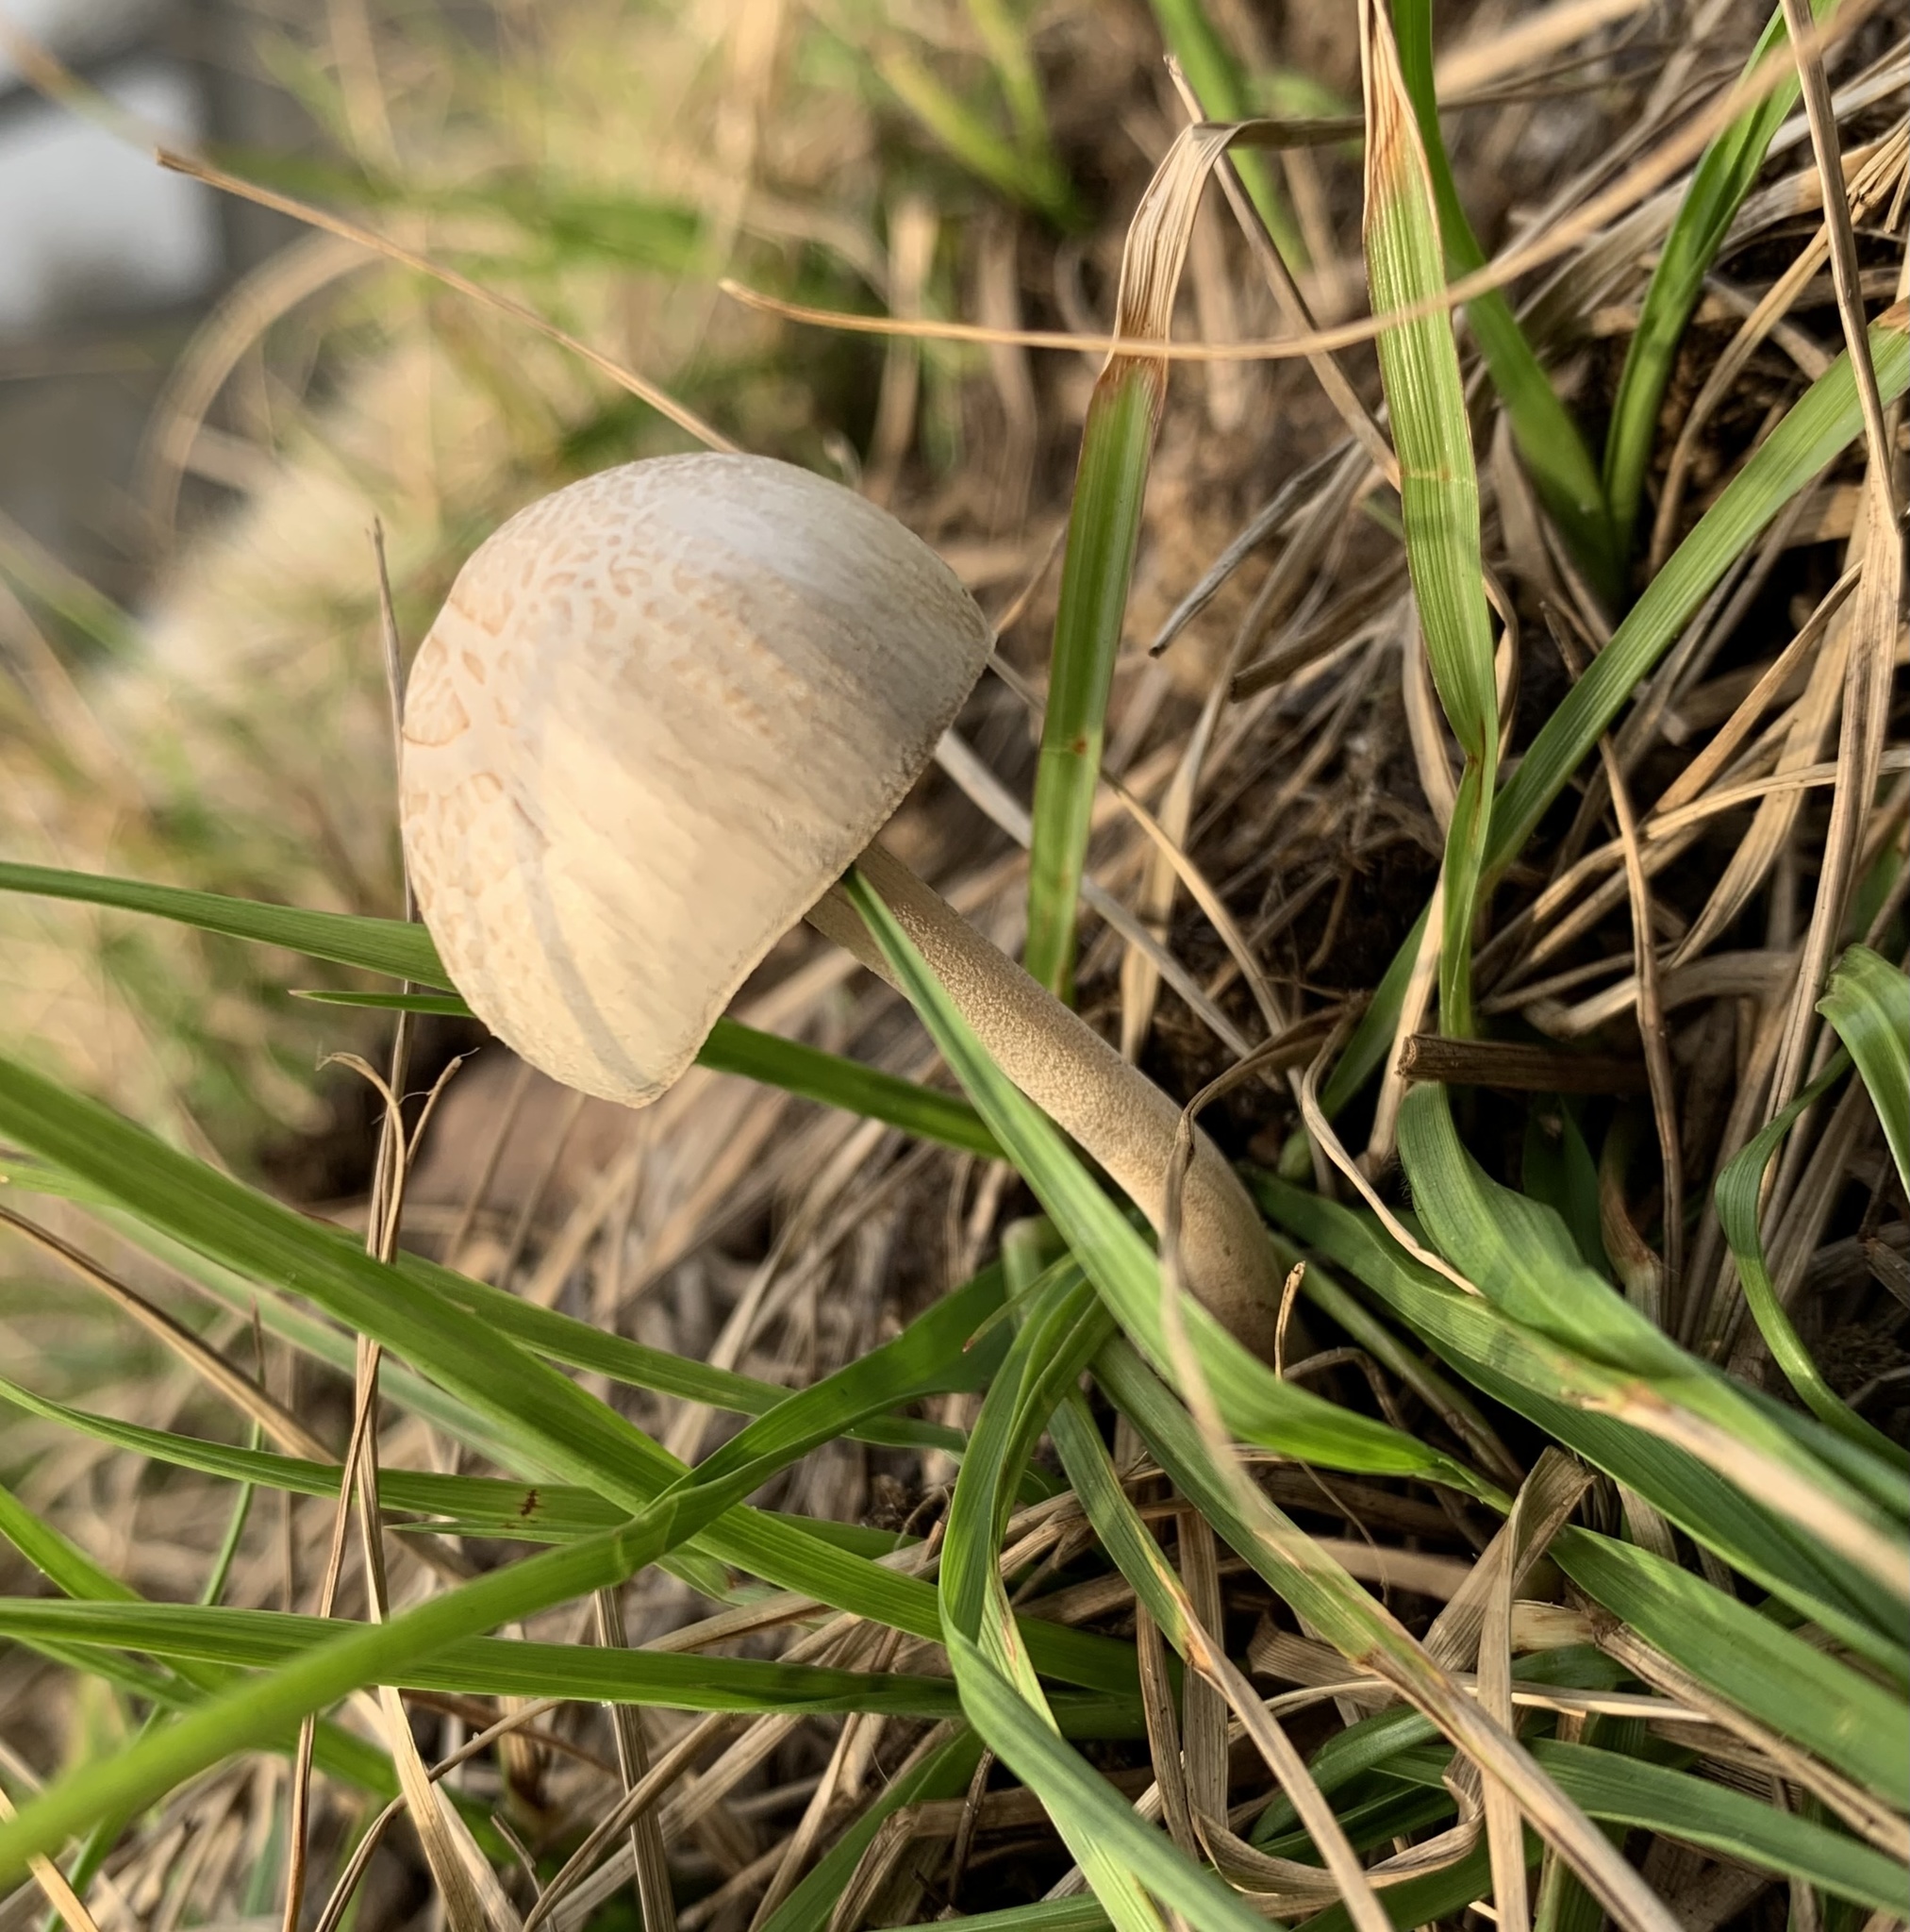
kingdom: Fungi
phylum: Basidiomycota
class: Agaricomycetes
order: Agaricales
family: Bolbitiaceae
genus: Panaeolus
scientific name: Panaeolus antillarum
